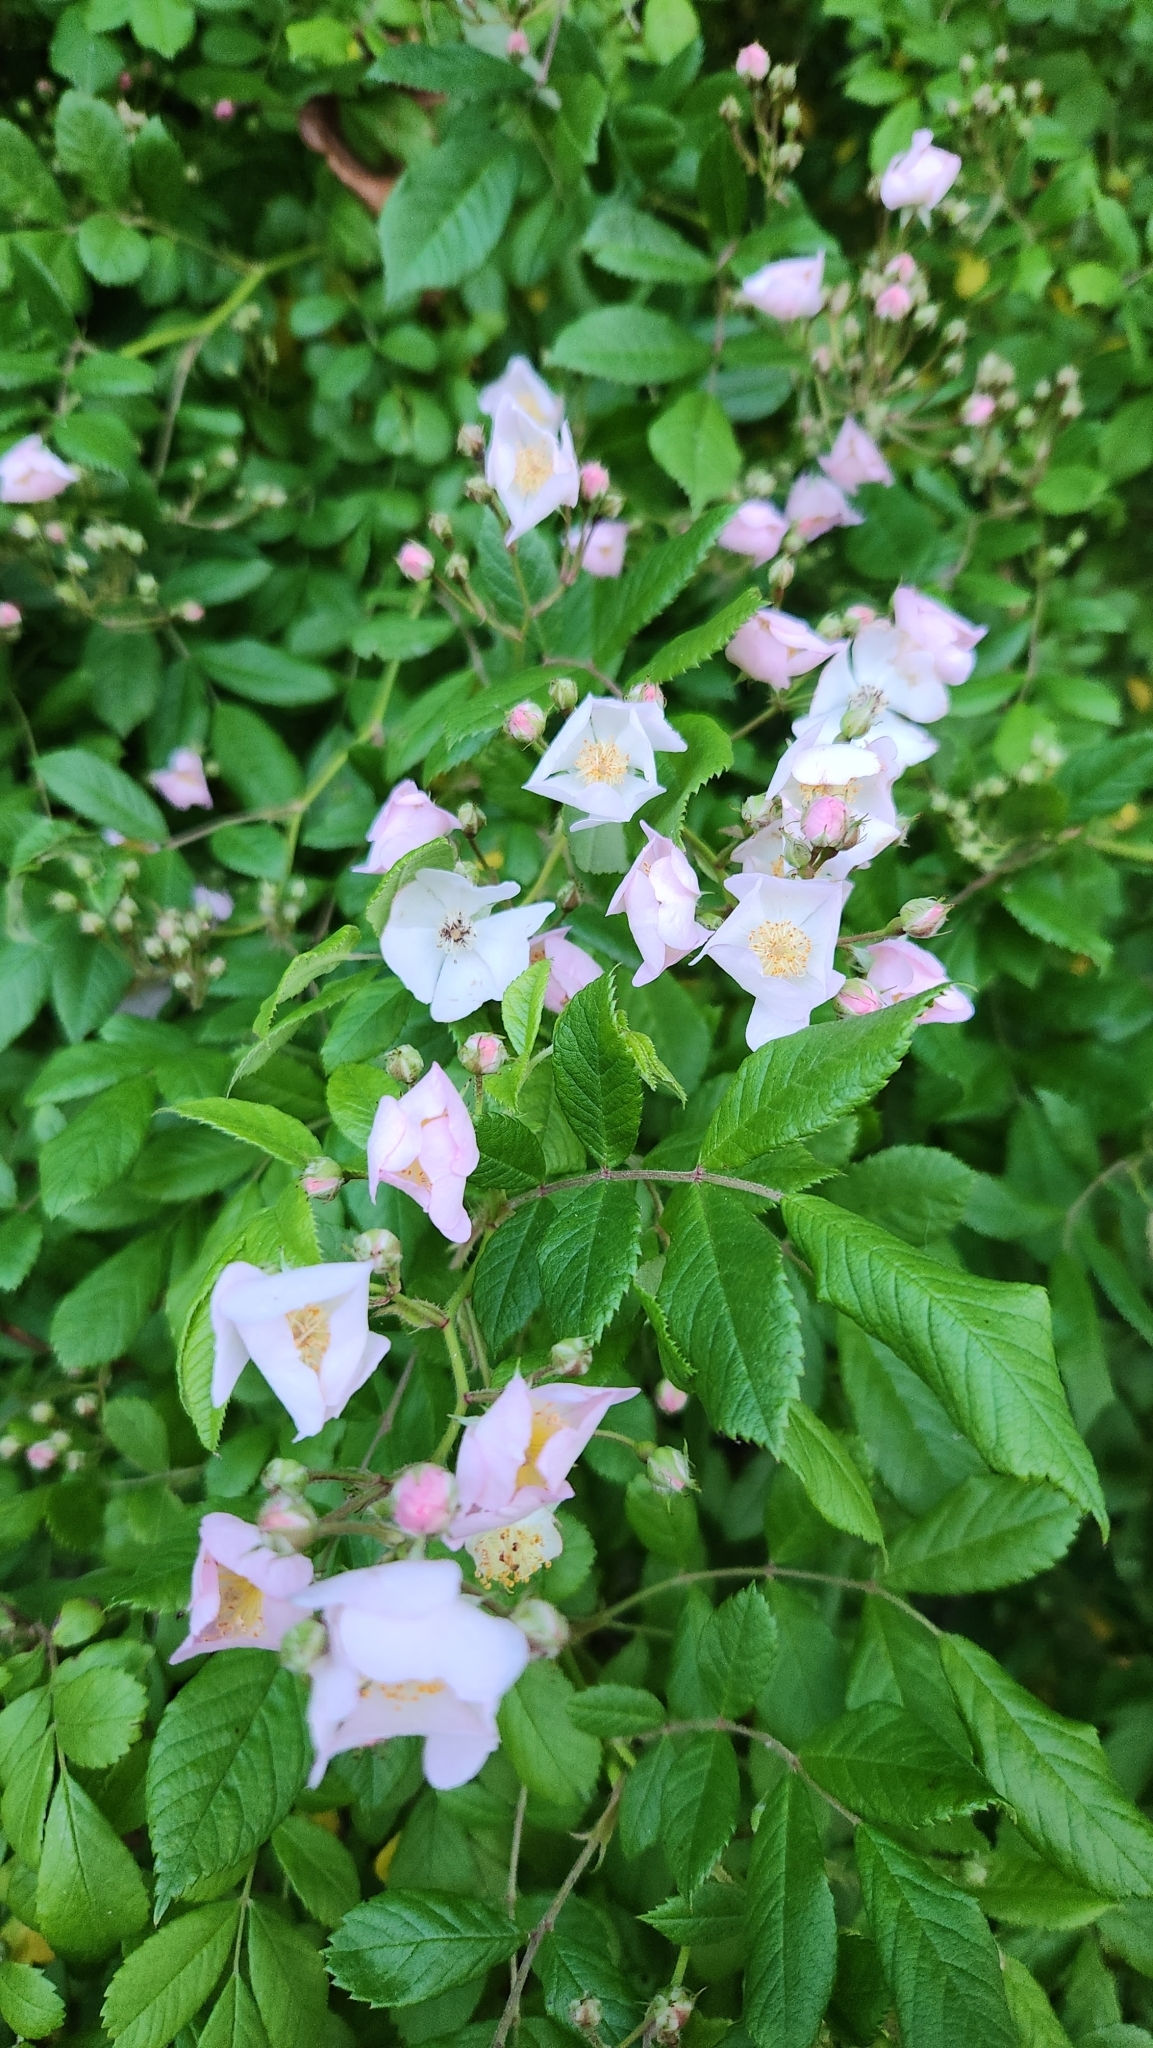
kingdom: Plantae
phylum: Tracheophyta
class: Magnoliopsida
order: Rosales
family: Rosaceae
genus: Rosa
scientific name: Rosa multiflora
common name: Multiflora rose
